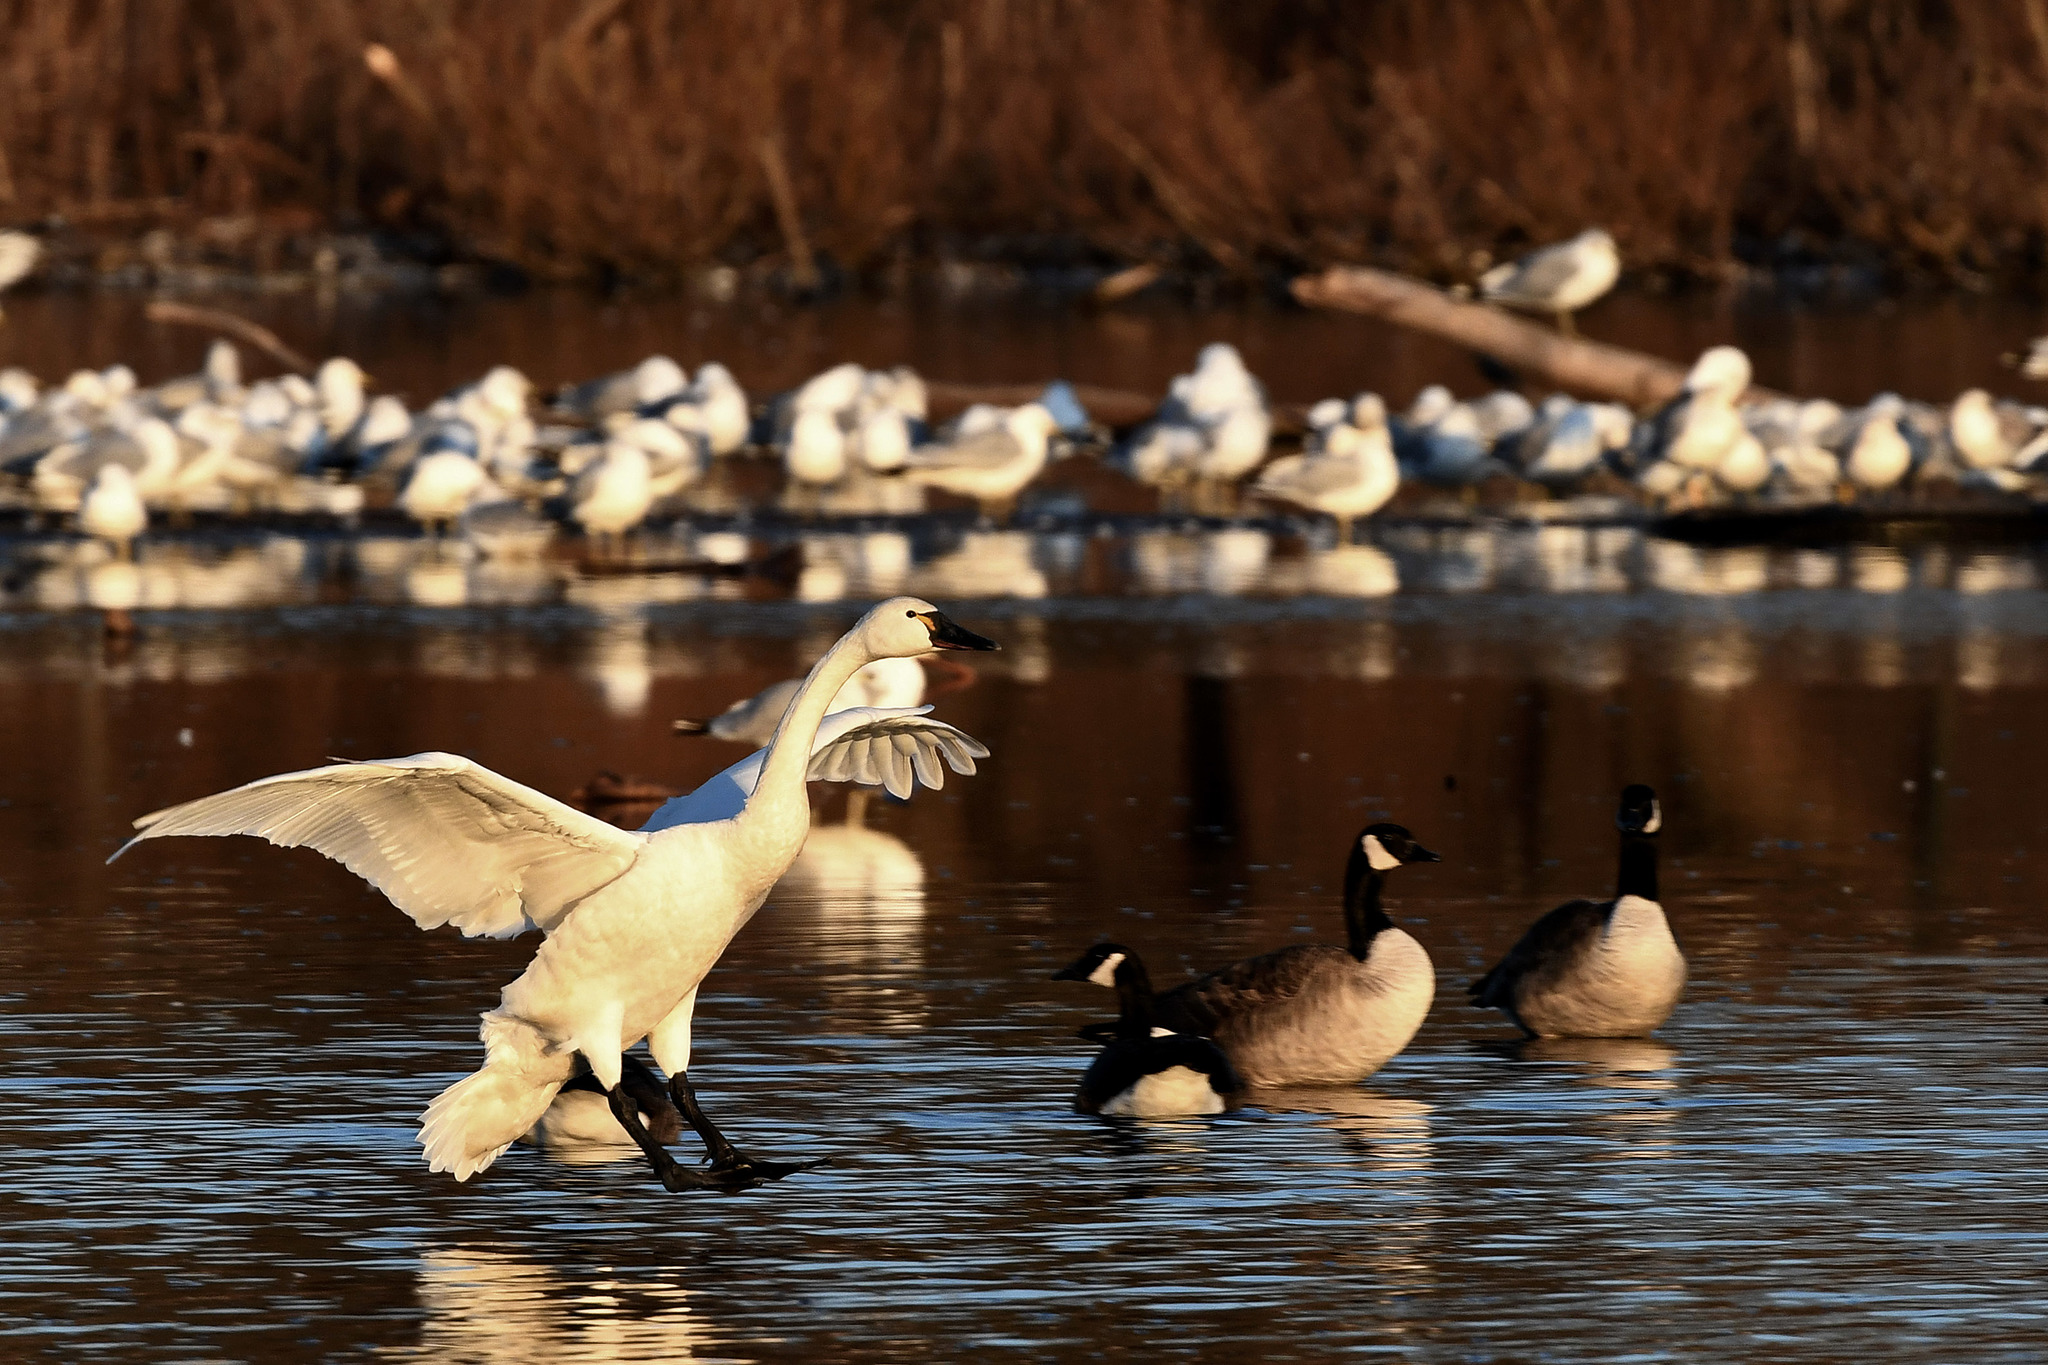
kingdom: Animalia
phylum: Chordata
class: Aves
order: Anseriformes
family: Anatidae
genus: Cygnus
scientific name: Cygnus columbianus
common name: Tundra swan
